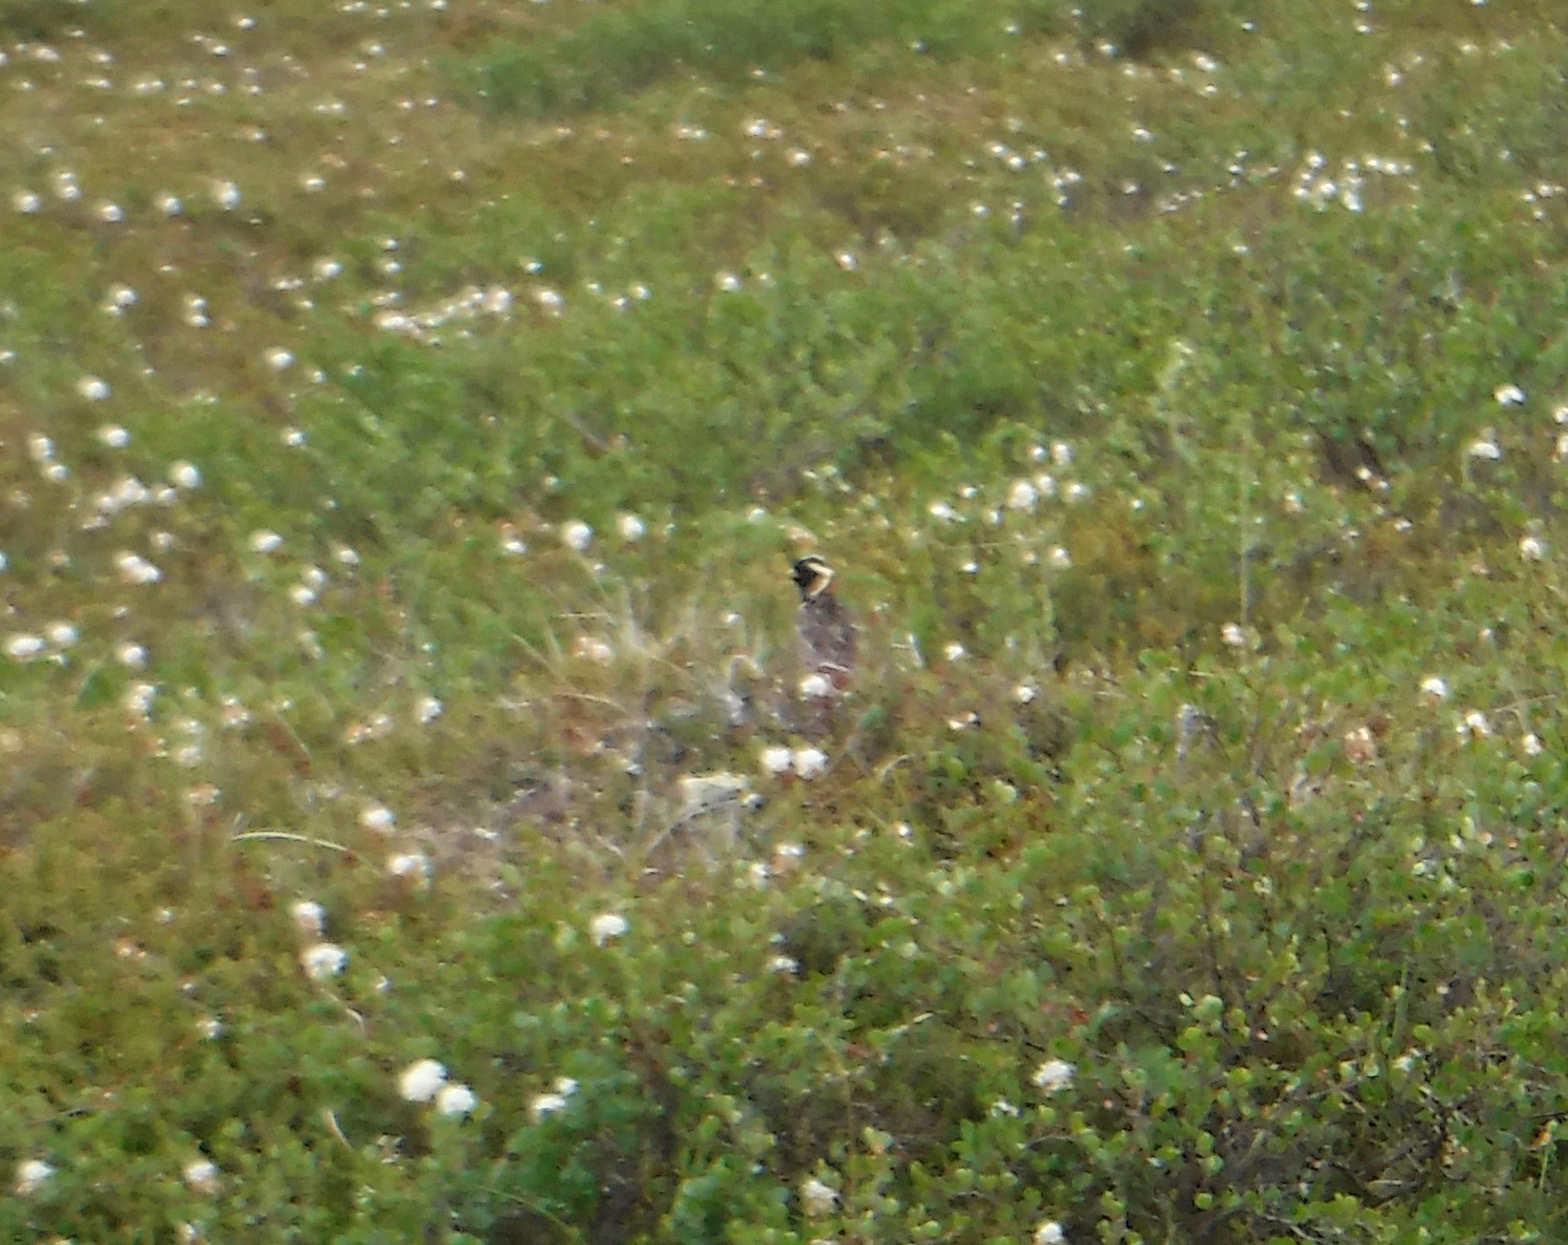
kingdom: Animalia
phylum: Chordata
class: Aves
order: Passeriformes
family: Calcariidae
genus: Calcarius
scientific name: Calcarius lapponicus
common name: Lapland longspur
